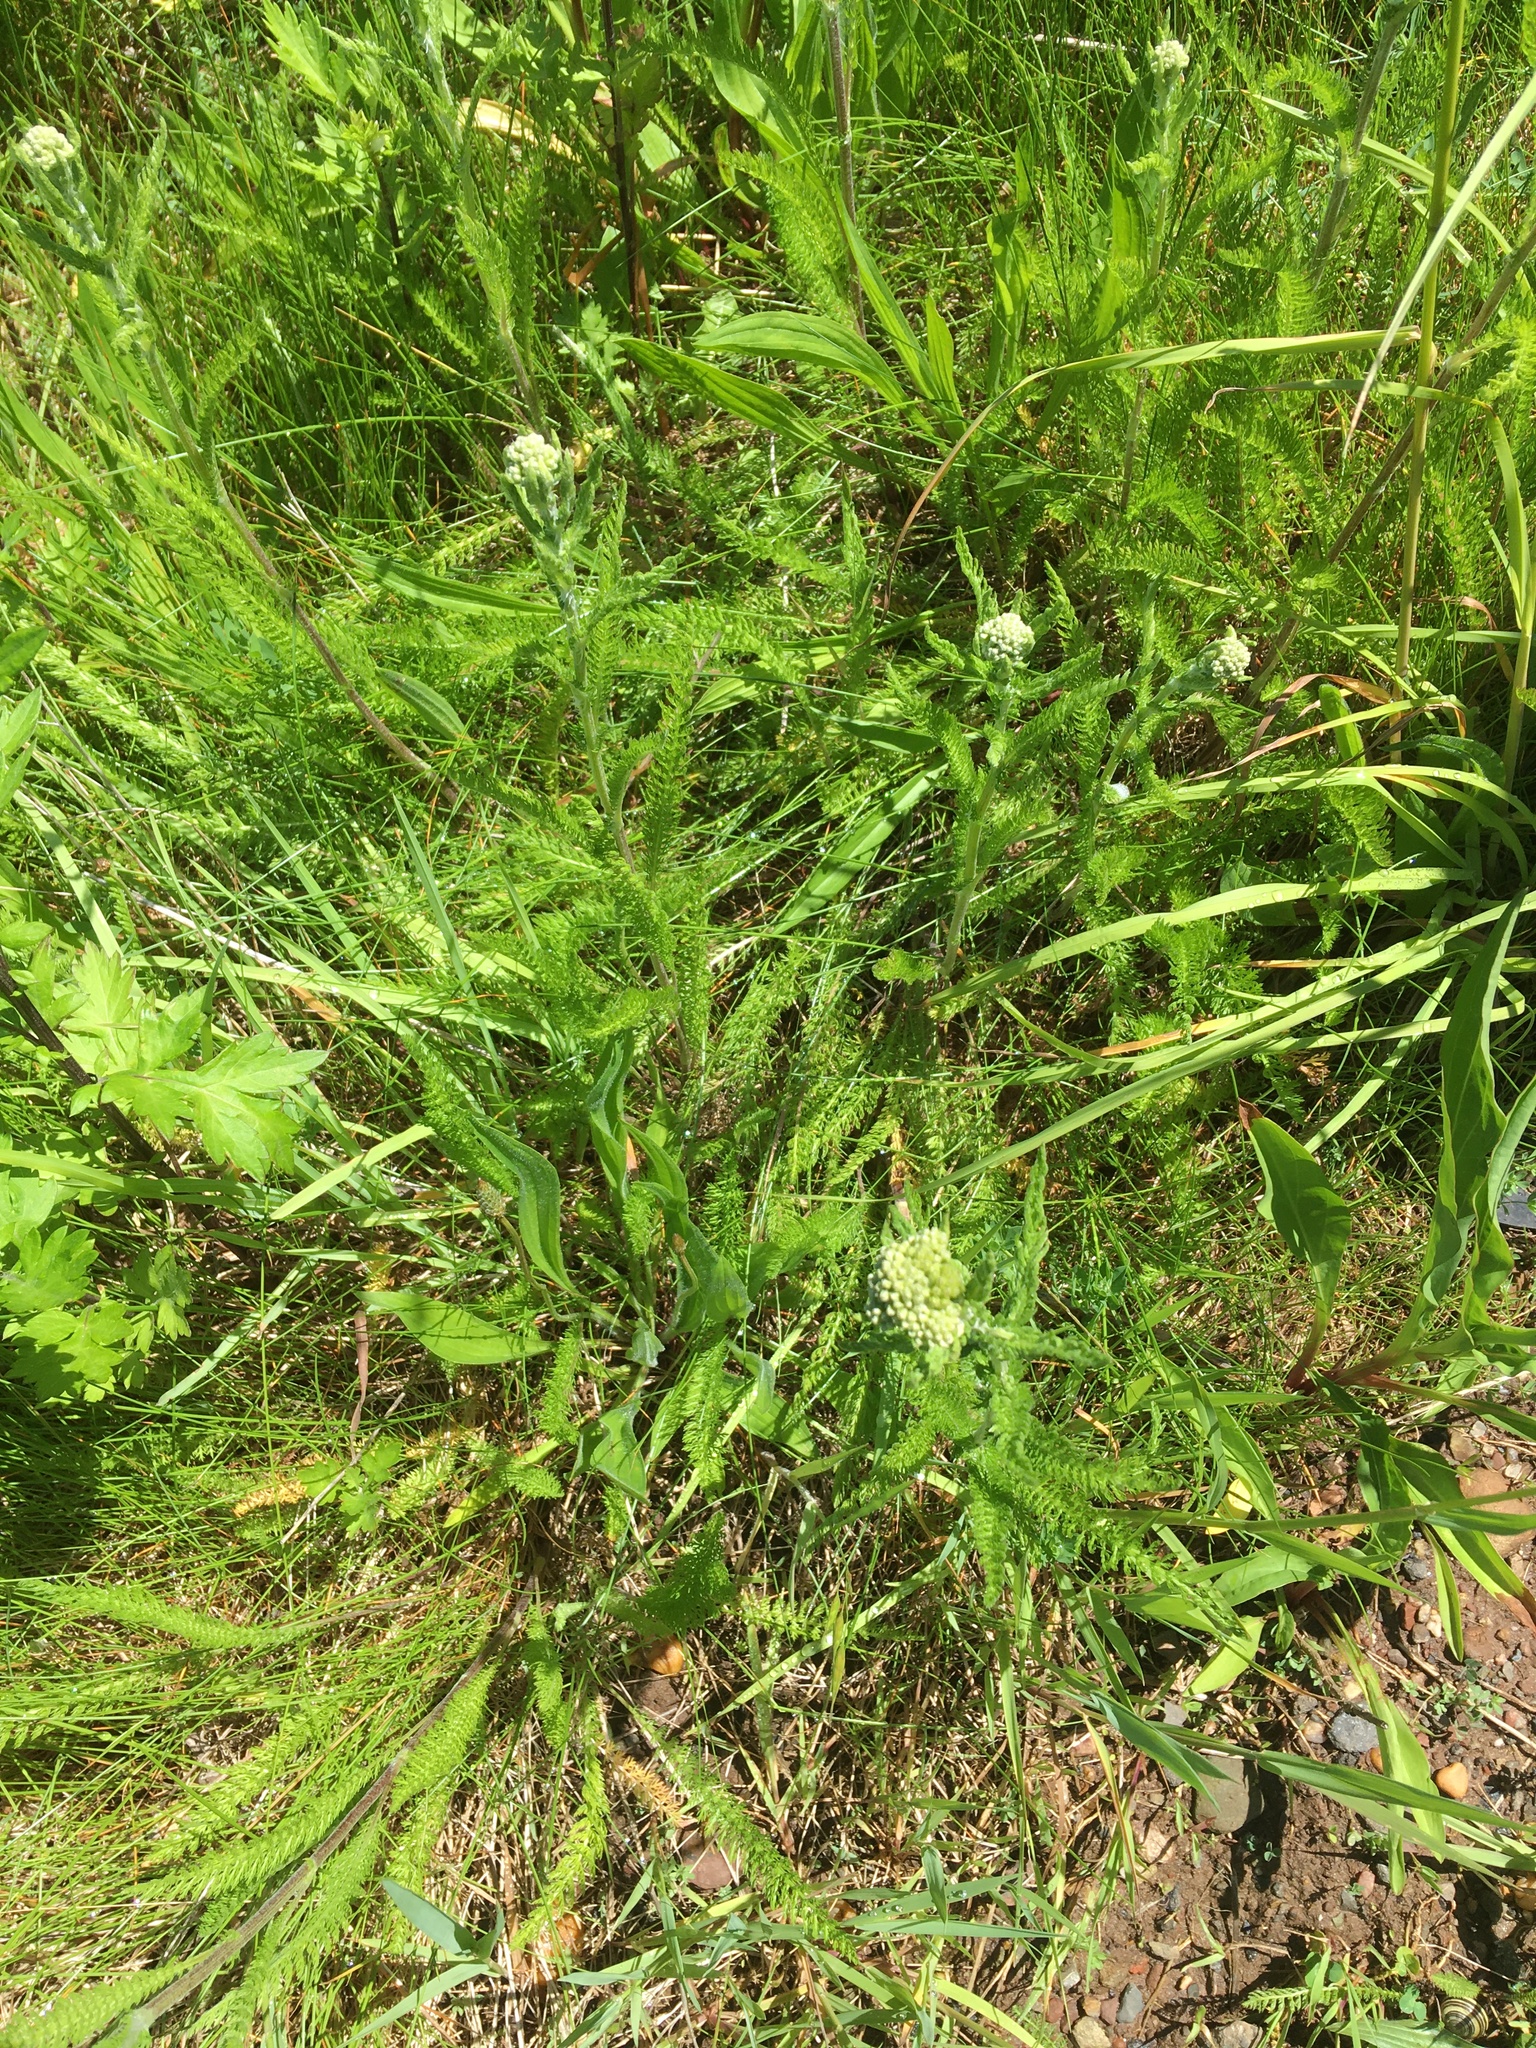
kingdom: Plantae
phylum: Tracheophyta
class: Magnoliopsida
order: Asterales
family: Asteraceae
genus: Achillea
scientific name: Achillea millefolium
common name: Yarrow
